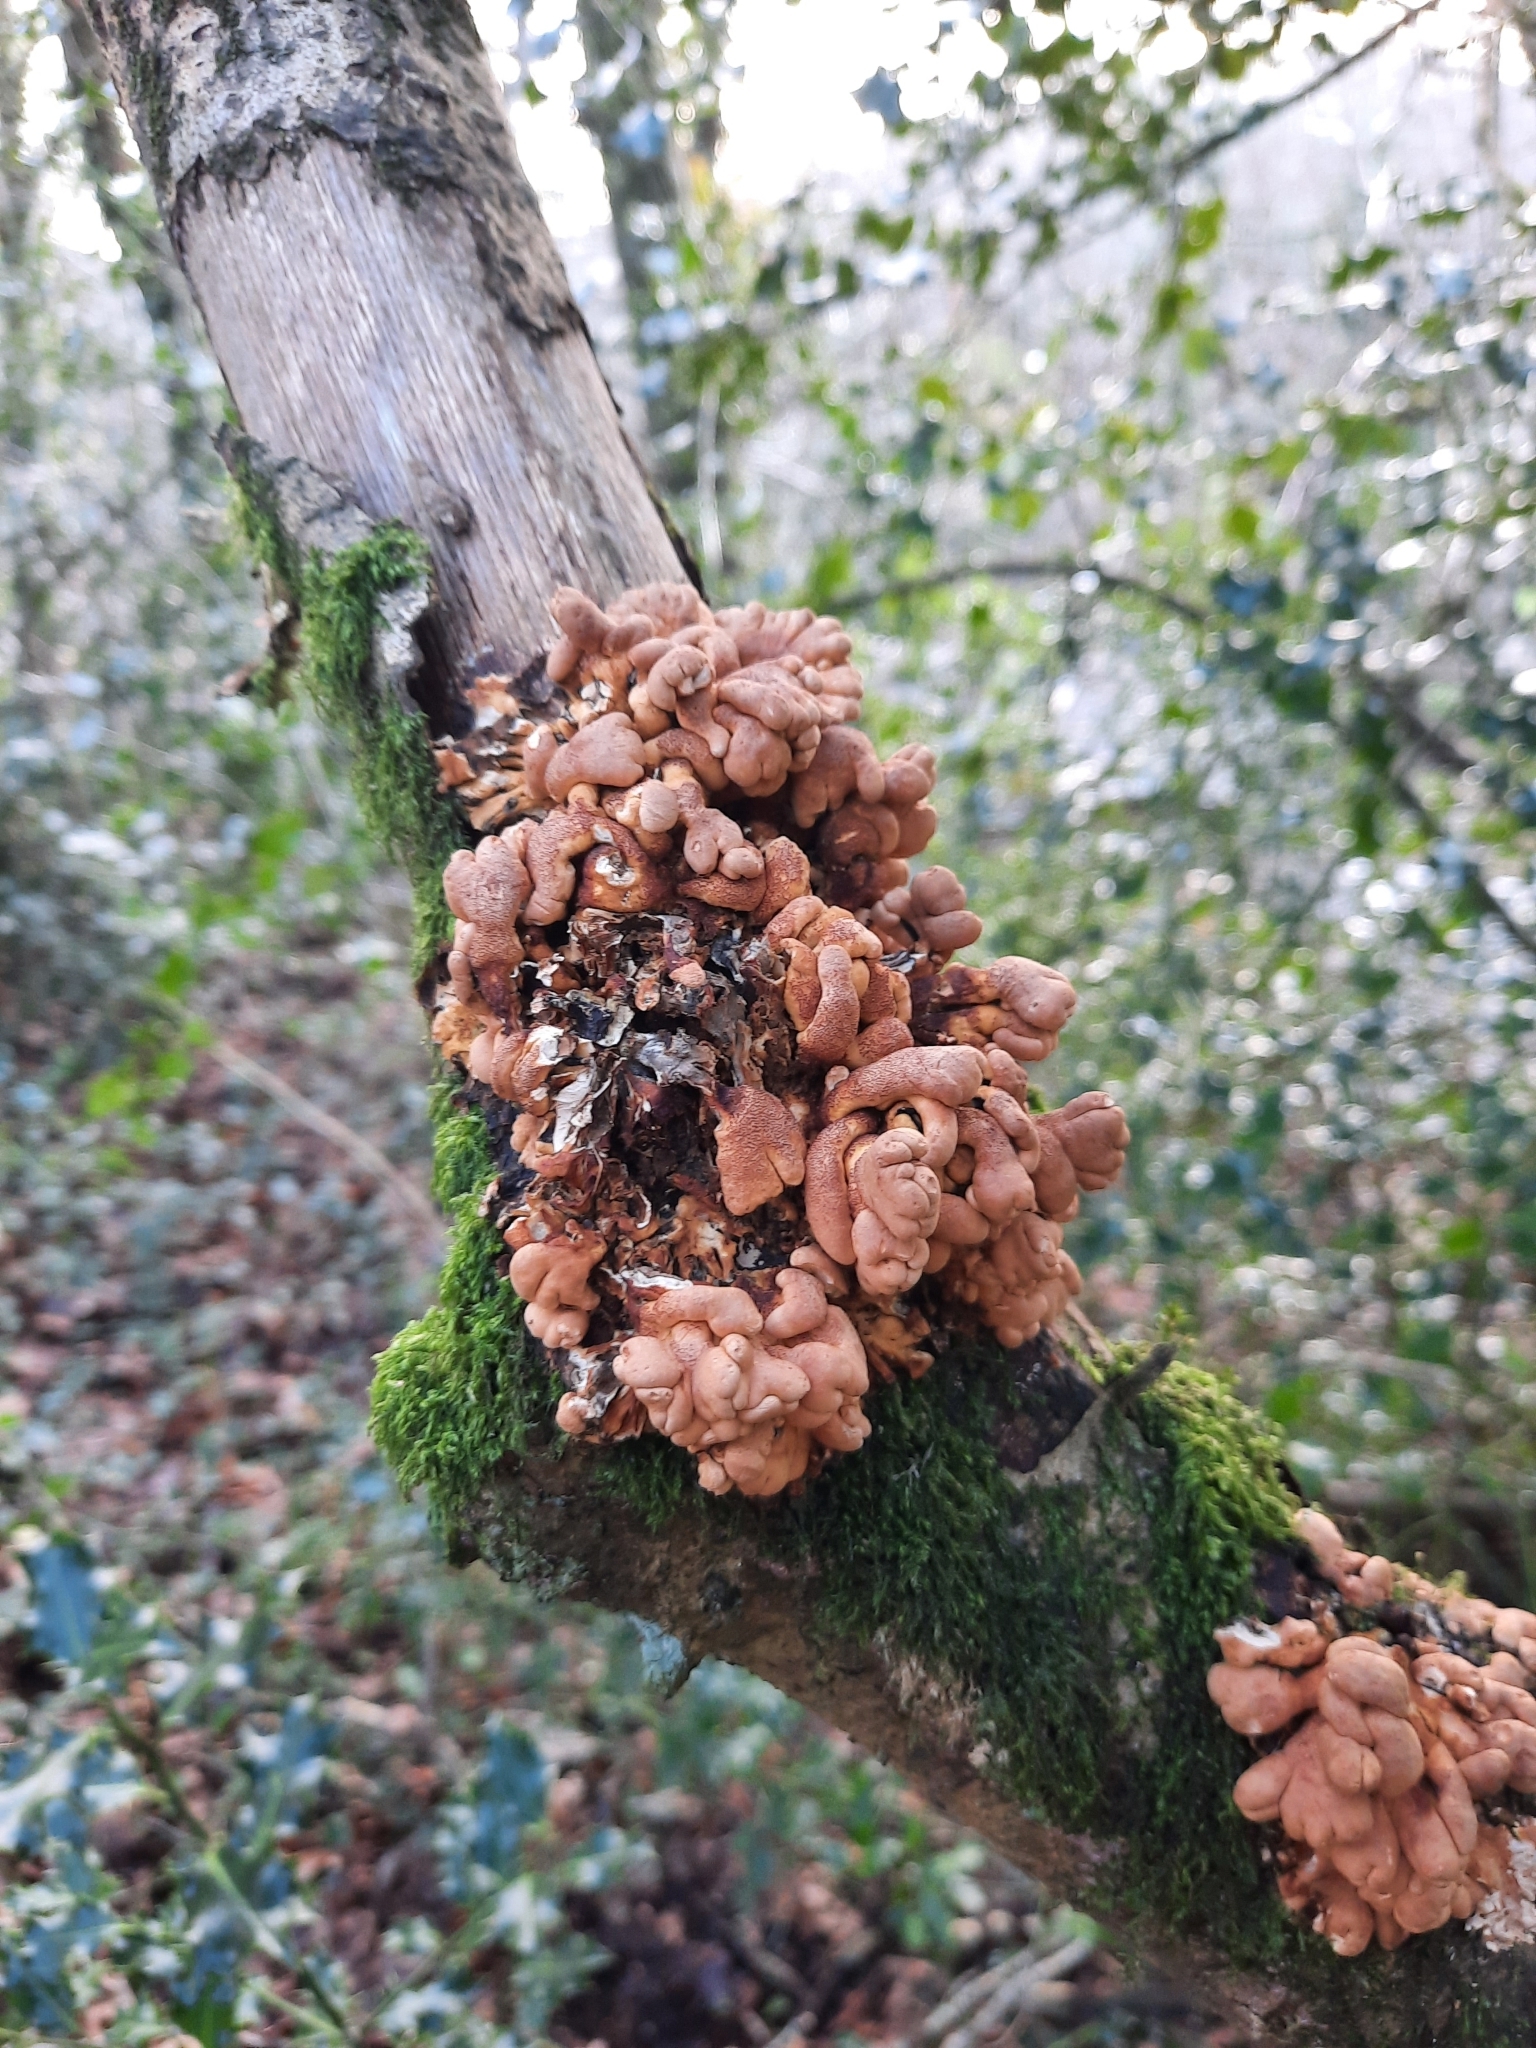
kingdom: Fungi
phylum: Ascomycota
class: Sordariomycetes
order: Hypocreales
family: Hypocreaceae
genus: Hypocreopsis
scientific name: Hypocreopsis rhododendri
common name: Hazel gloves
